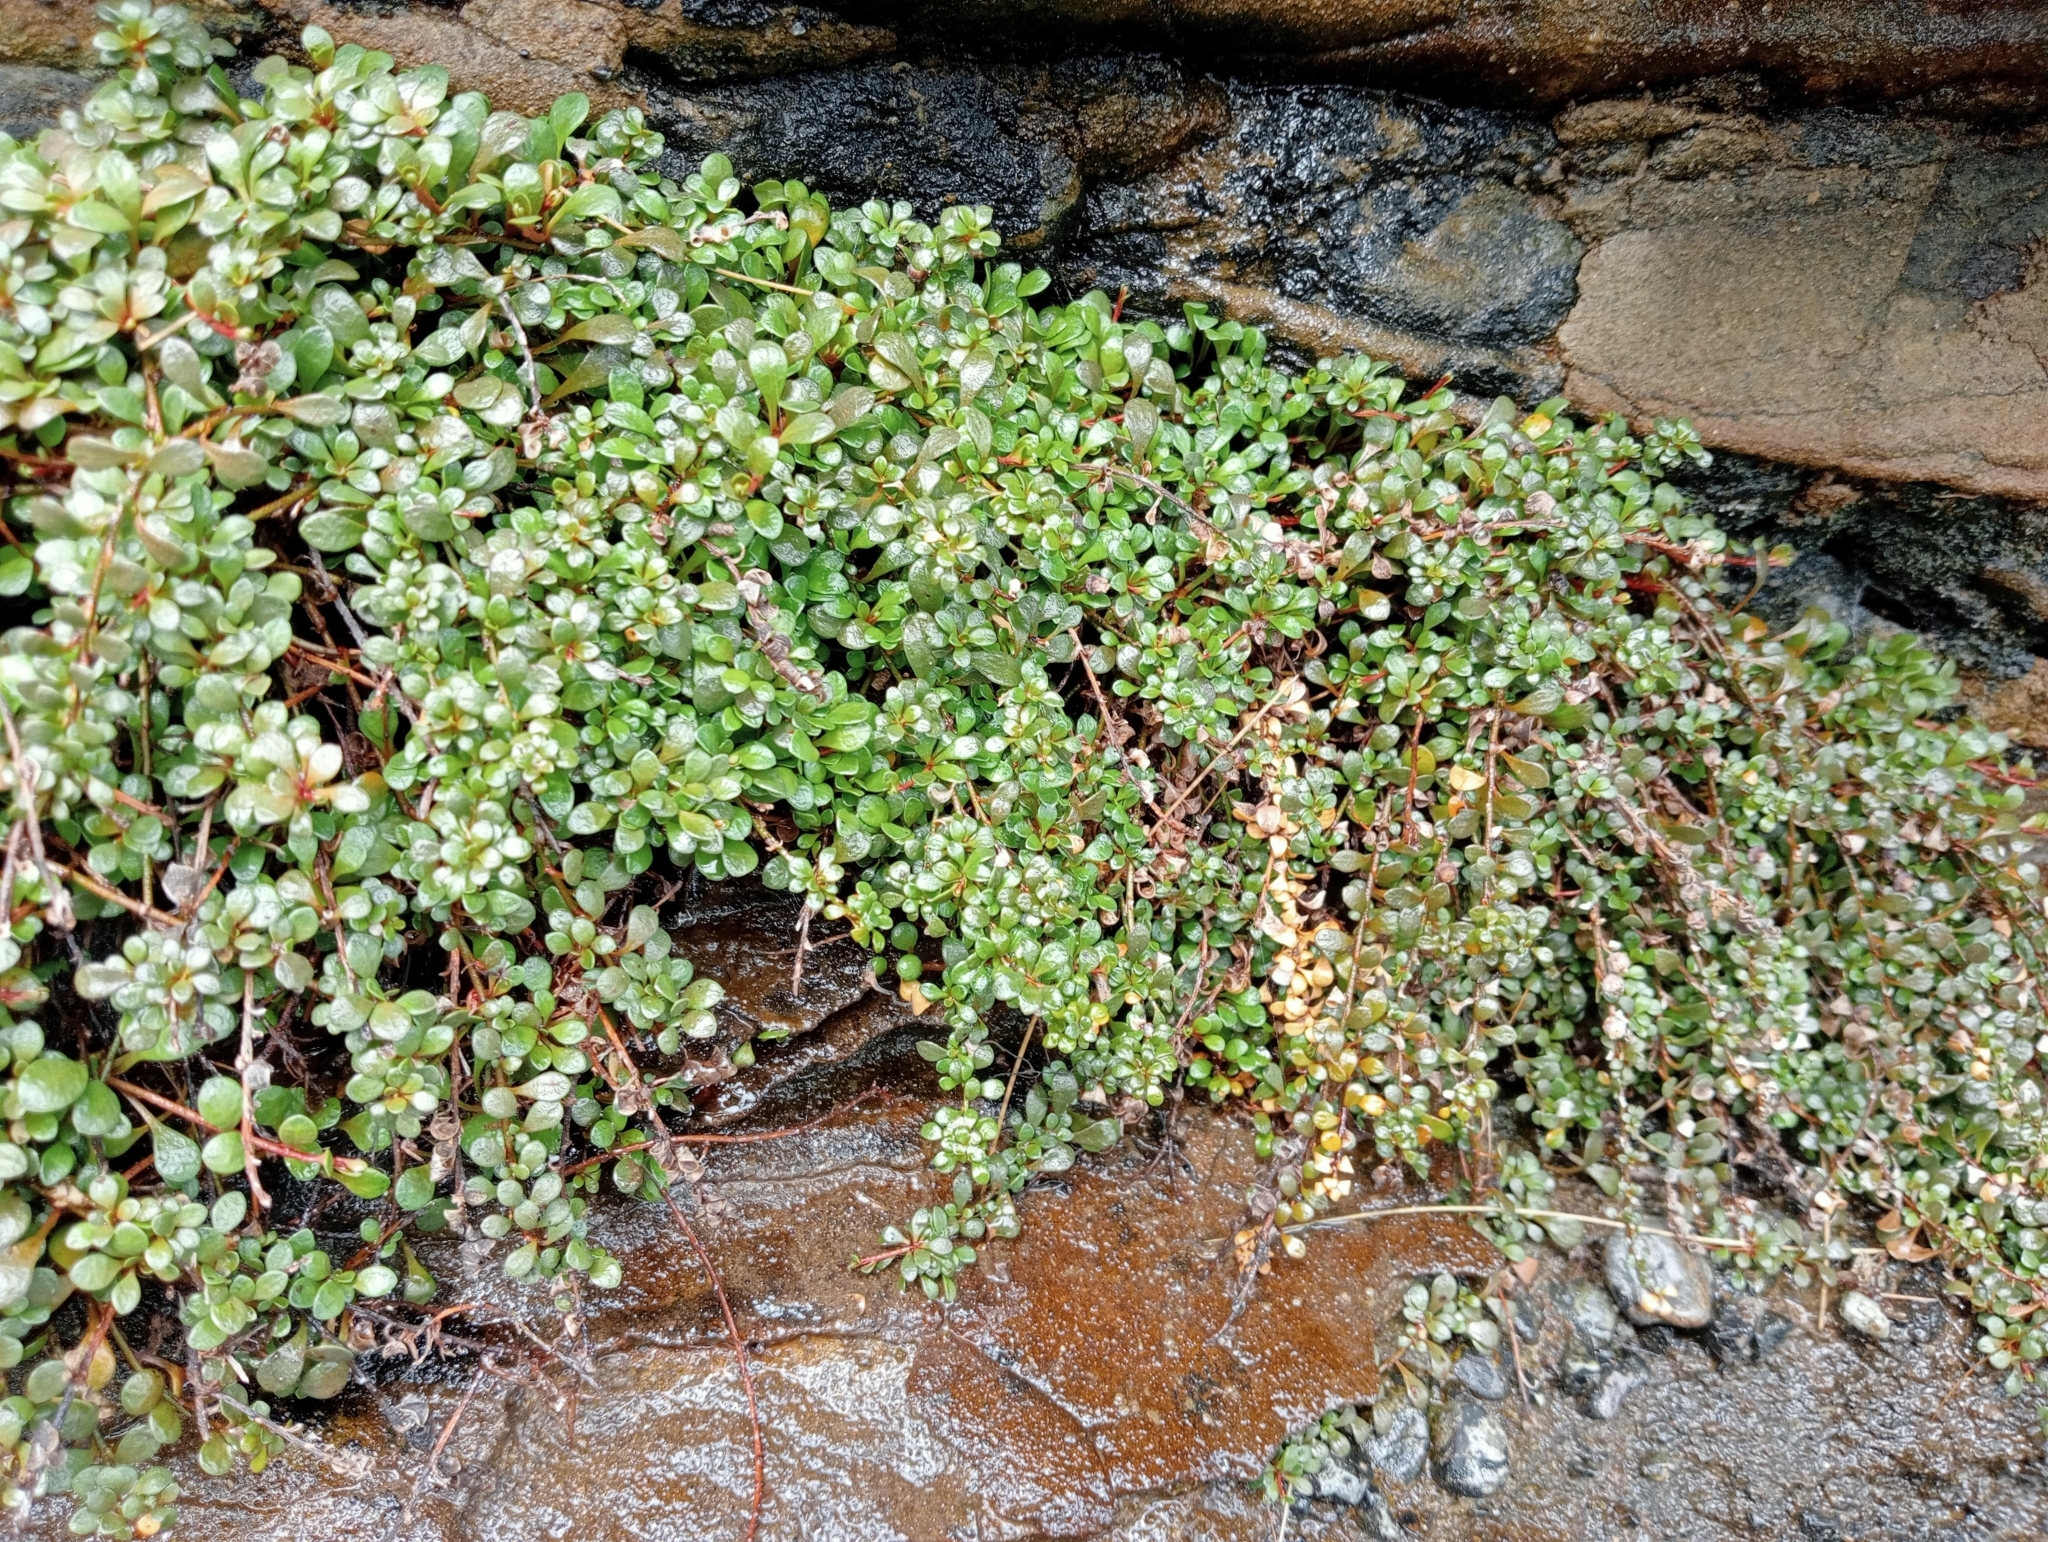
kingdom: Plantae
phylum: Tracheophyta
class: Magnoliopsida
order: Ericales
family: Primulaceae
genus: Samolus
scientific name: Samolus repens
